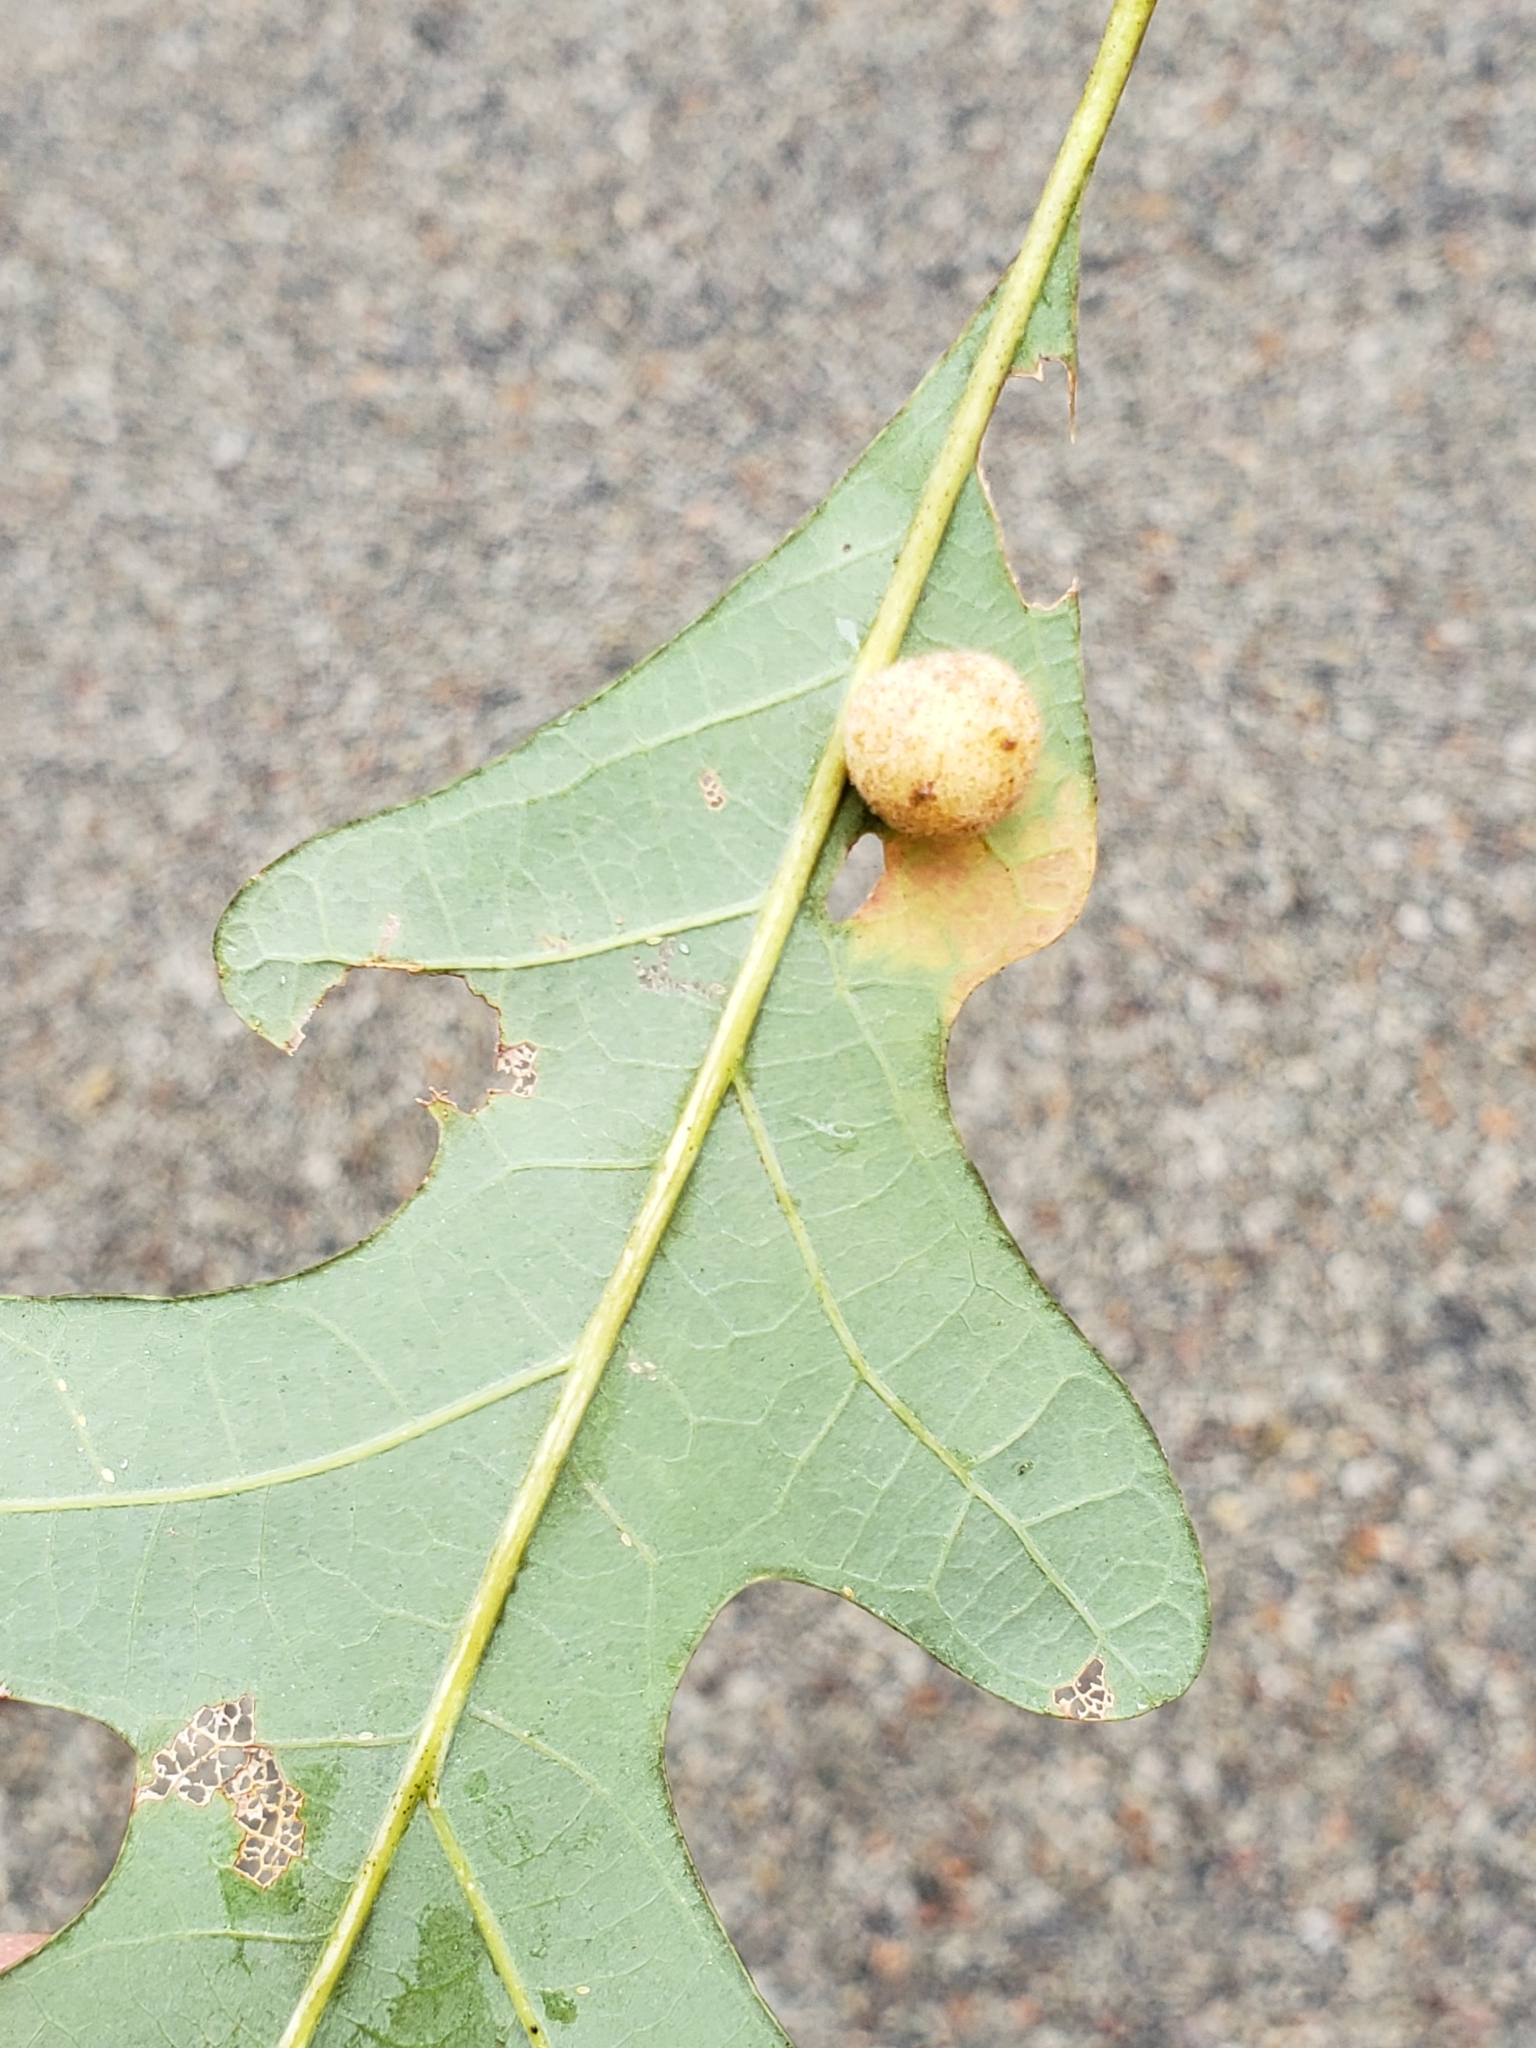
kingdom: Animalia
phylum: Arthropoda
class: Insecta
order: Hymenoptera
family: Cynipidae
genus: Philonix
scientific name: Philonix fulvicollis
